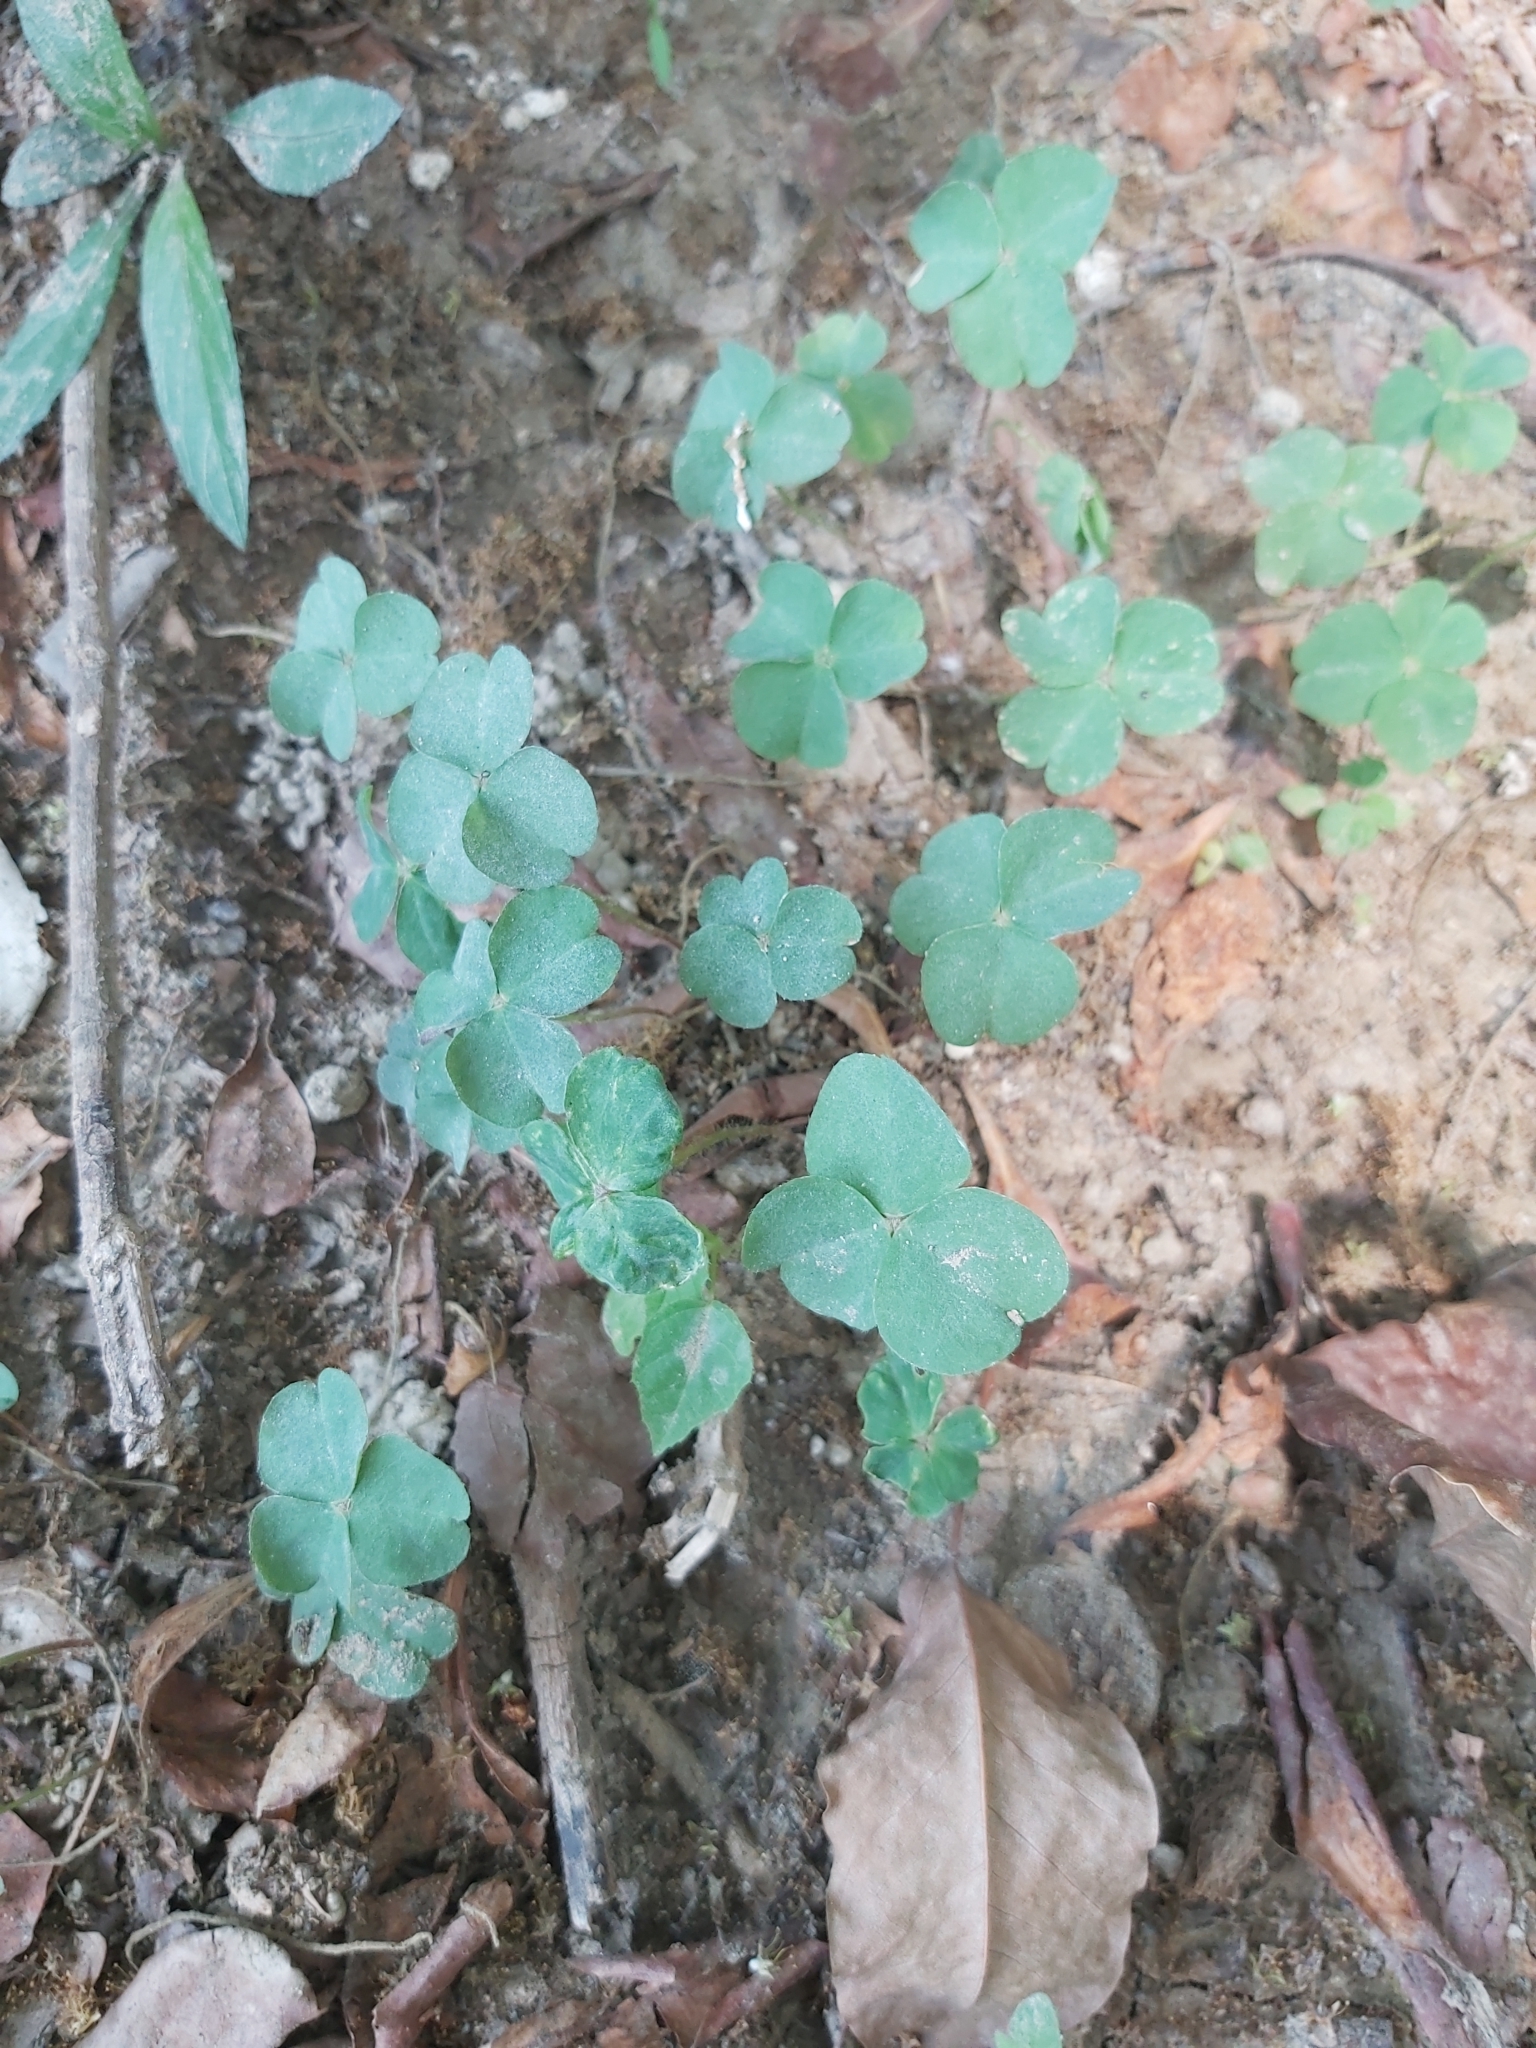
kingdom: Plantae
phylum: Tracheophyta
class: Magnoliopsida
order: Oxalidales
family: Oxalidaceae
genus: Oxalis
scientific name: Oxalis debilis
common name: Large-flowered pink-sorrel
